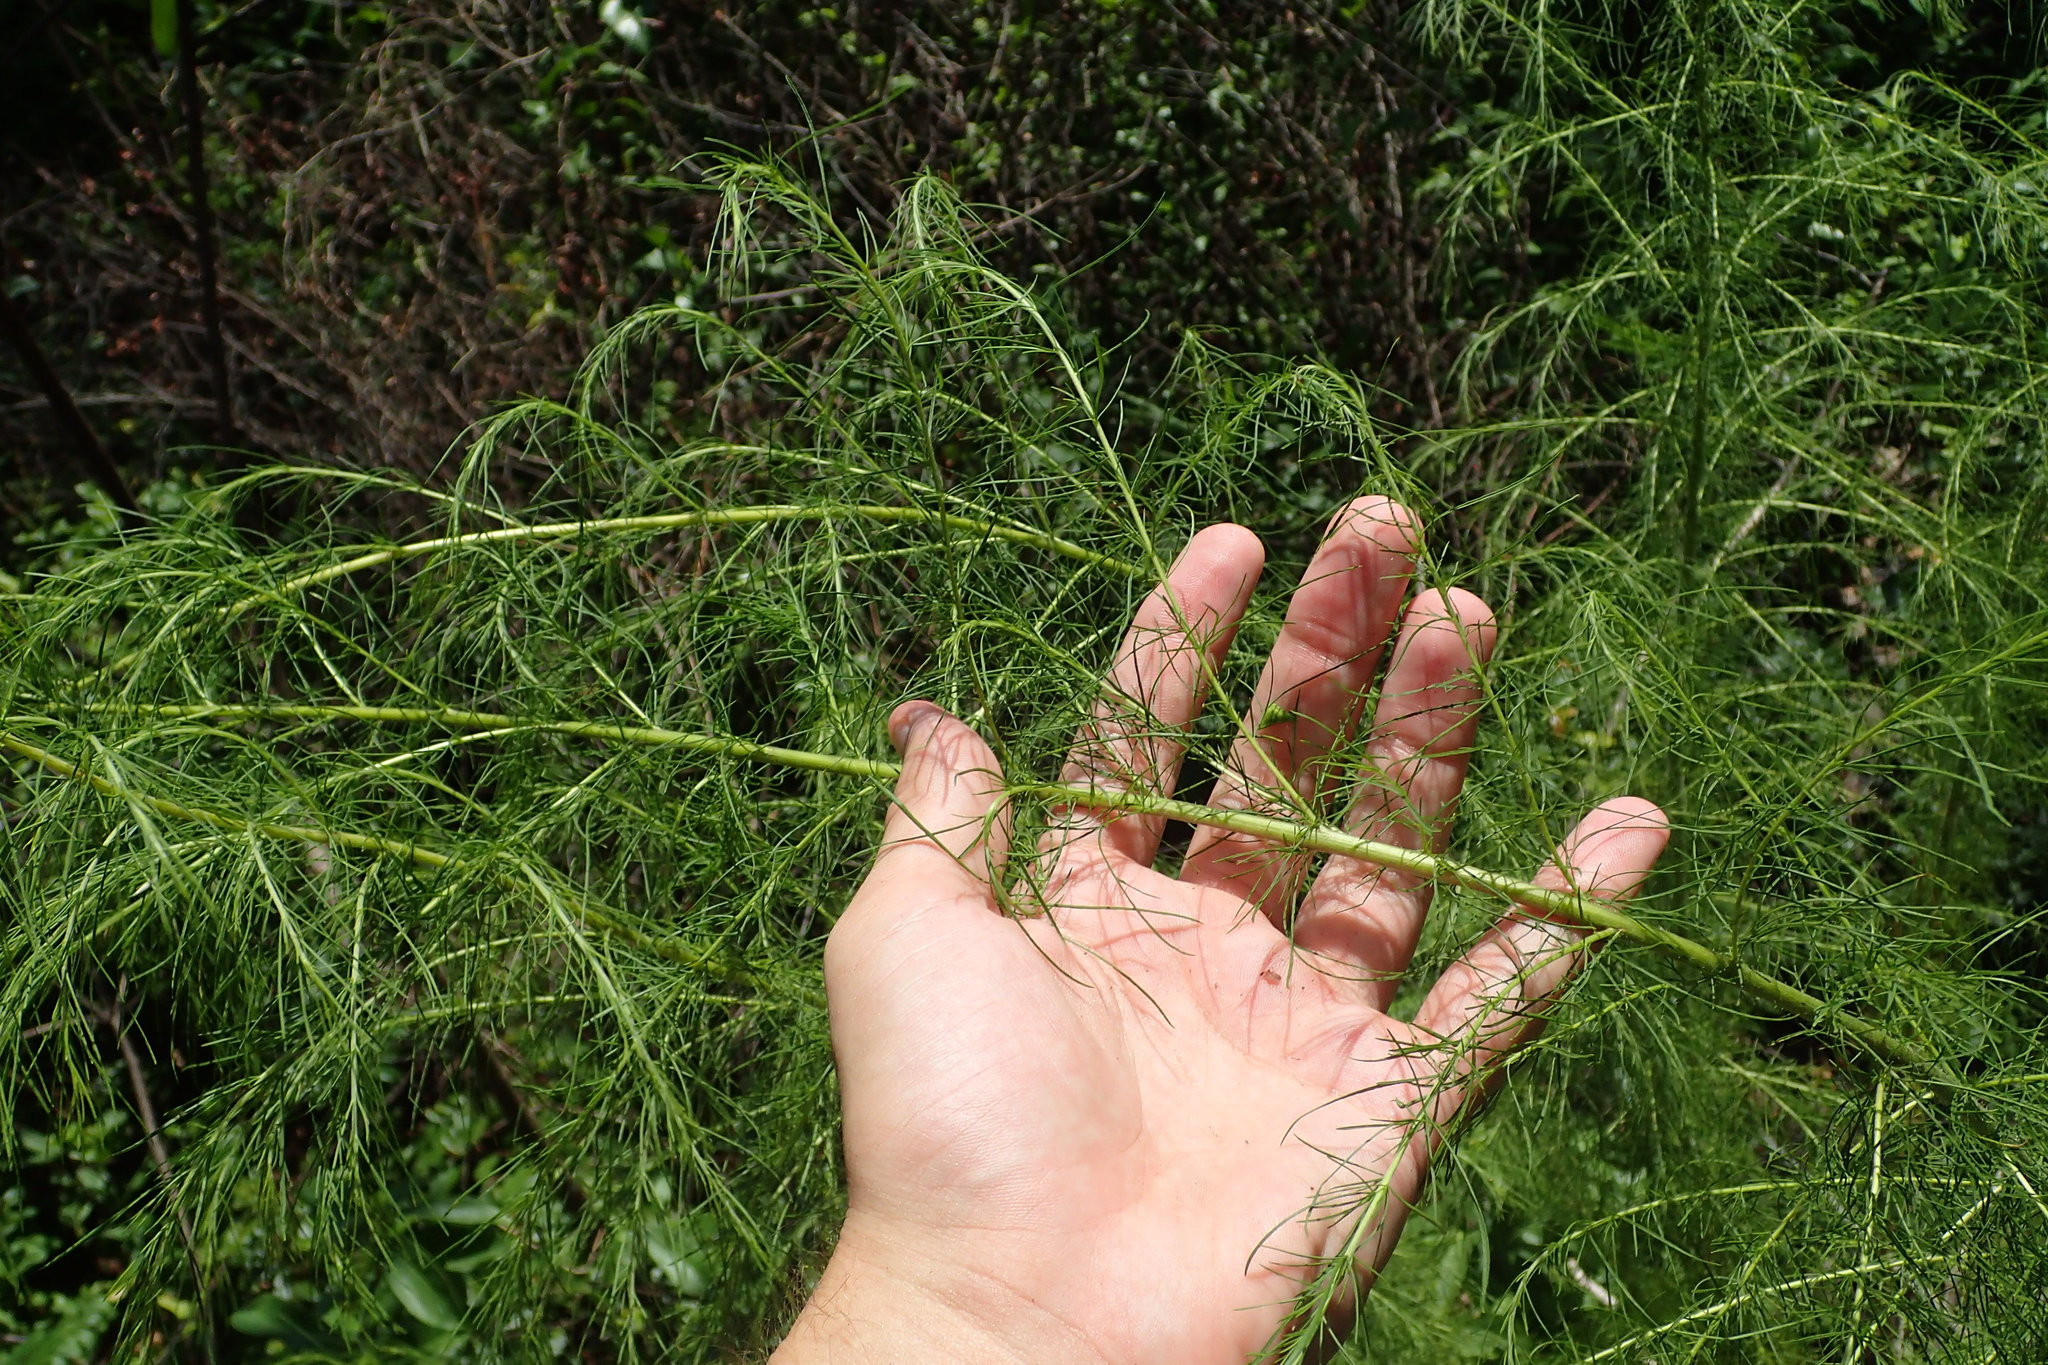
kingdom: Plantae
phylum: Tracheophyta
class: Magnoliopsida
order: Asterales
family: Asteraceae
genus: Eupatorium
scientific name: Eupatorium capillifolium
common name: Dog-fennel
